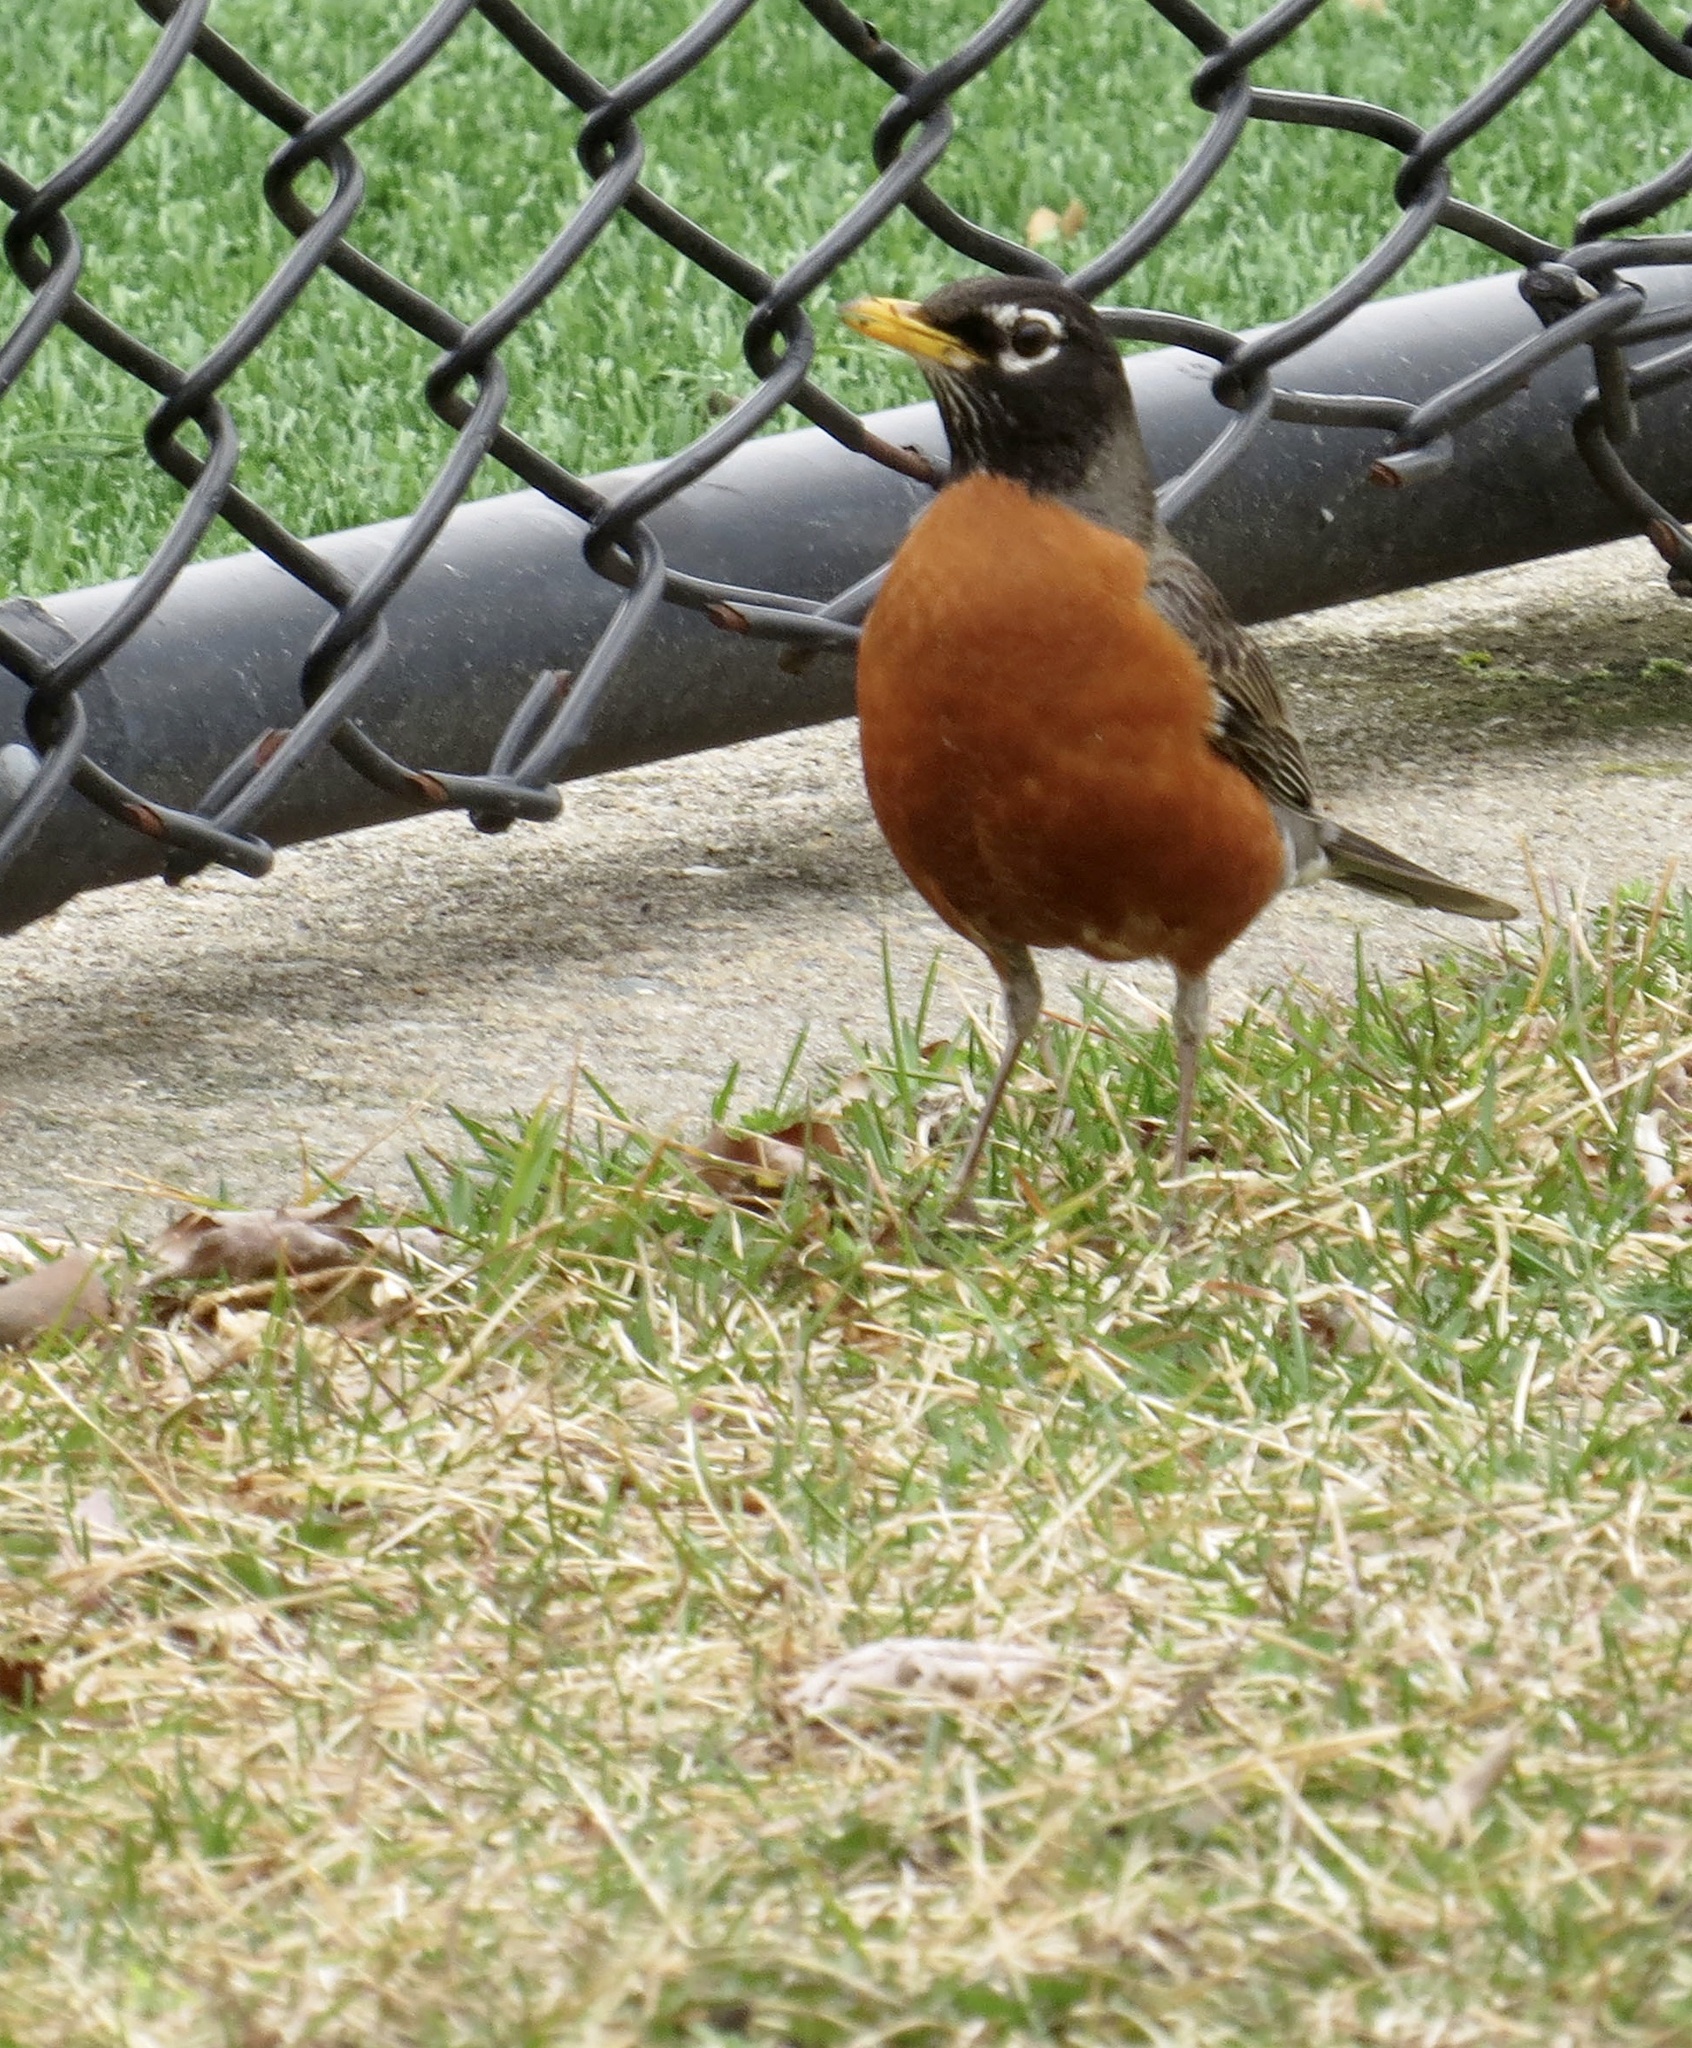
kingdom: Animalia
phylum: Chordata
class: Aves
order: Passeriformes
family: Turdidae
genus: Turdus
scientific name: Turdus migratorius
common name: American robin
